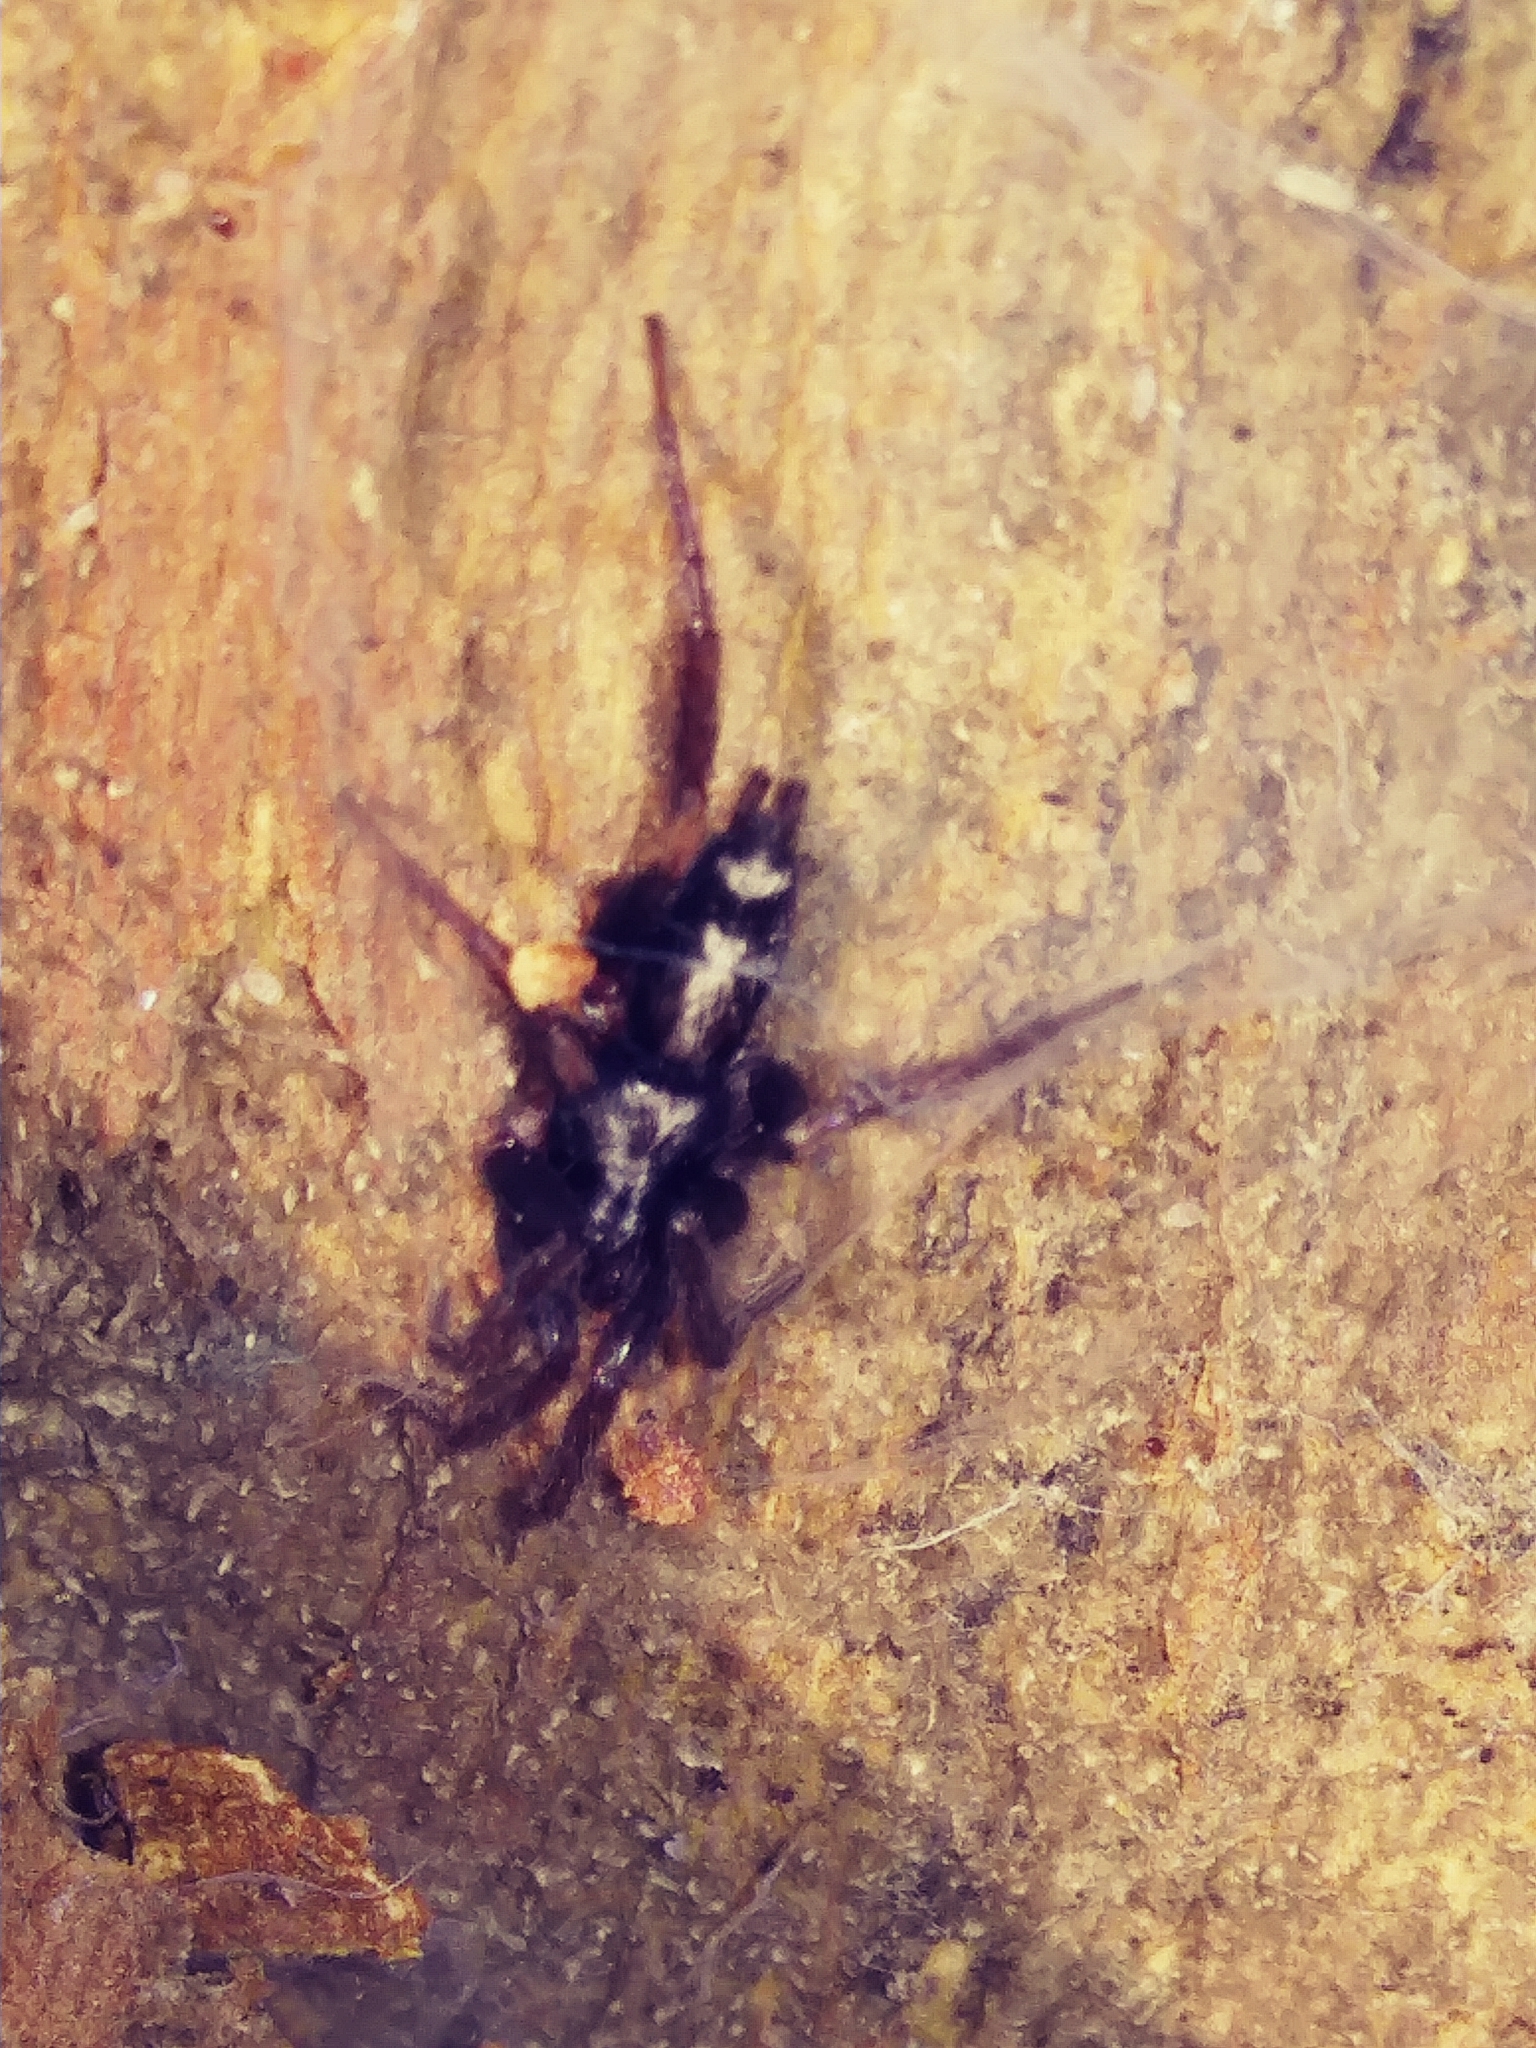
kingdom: Animalia
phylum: Arthropoda
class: Arachnida
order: Araneae
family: Gnaphosidae
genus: Herpyllus
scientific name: Herpyllus ecclesiasticus
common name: Eastern parson spider
